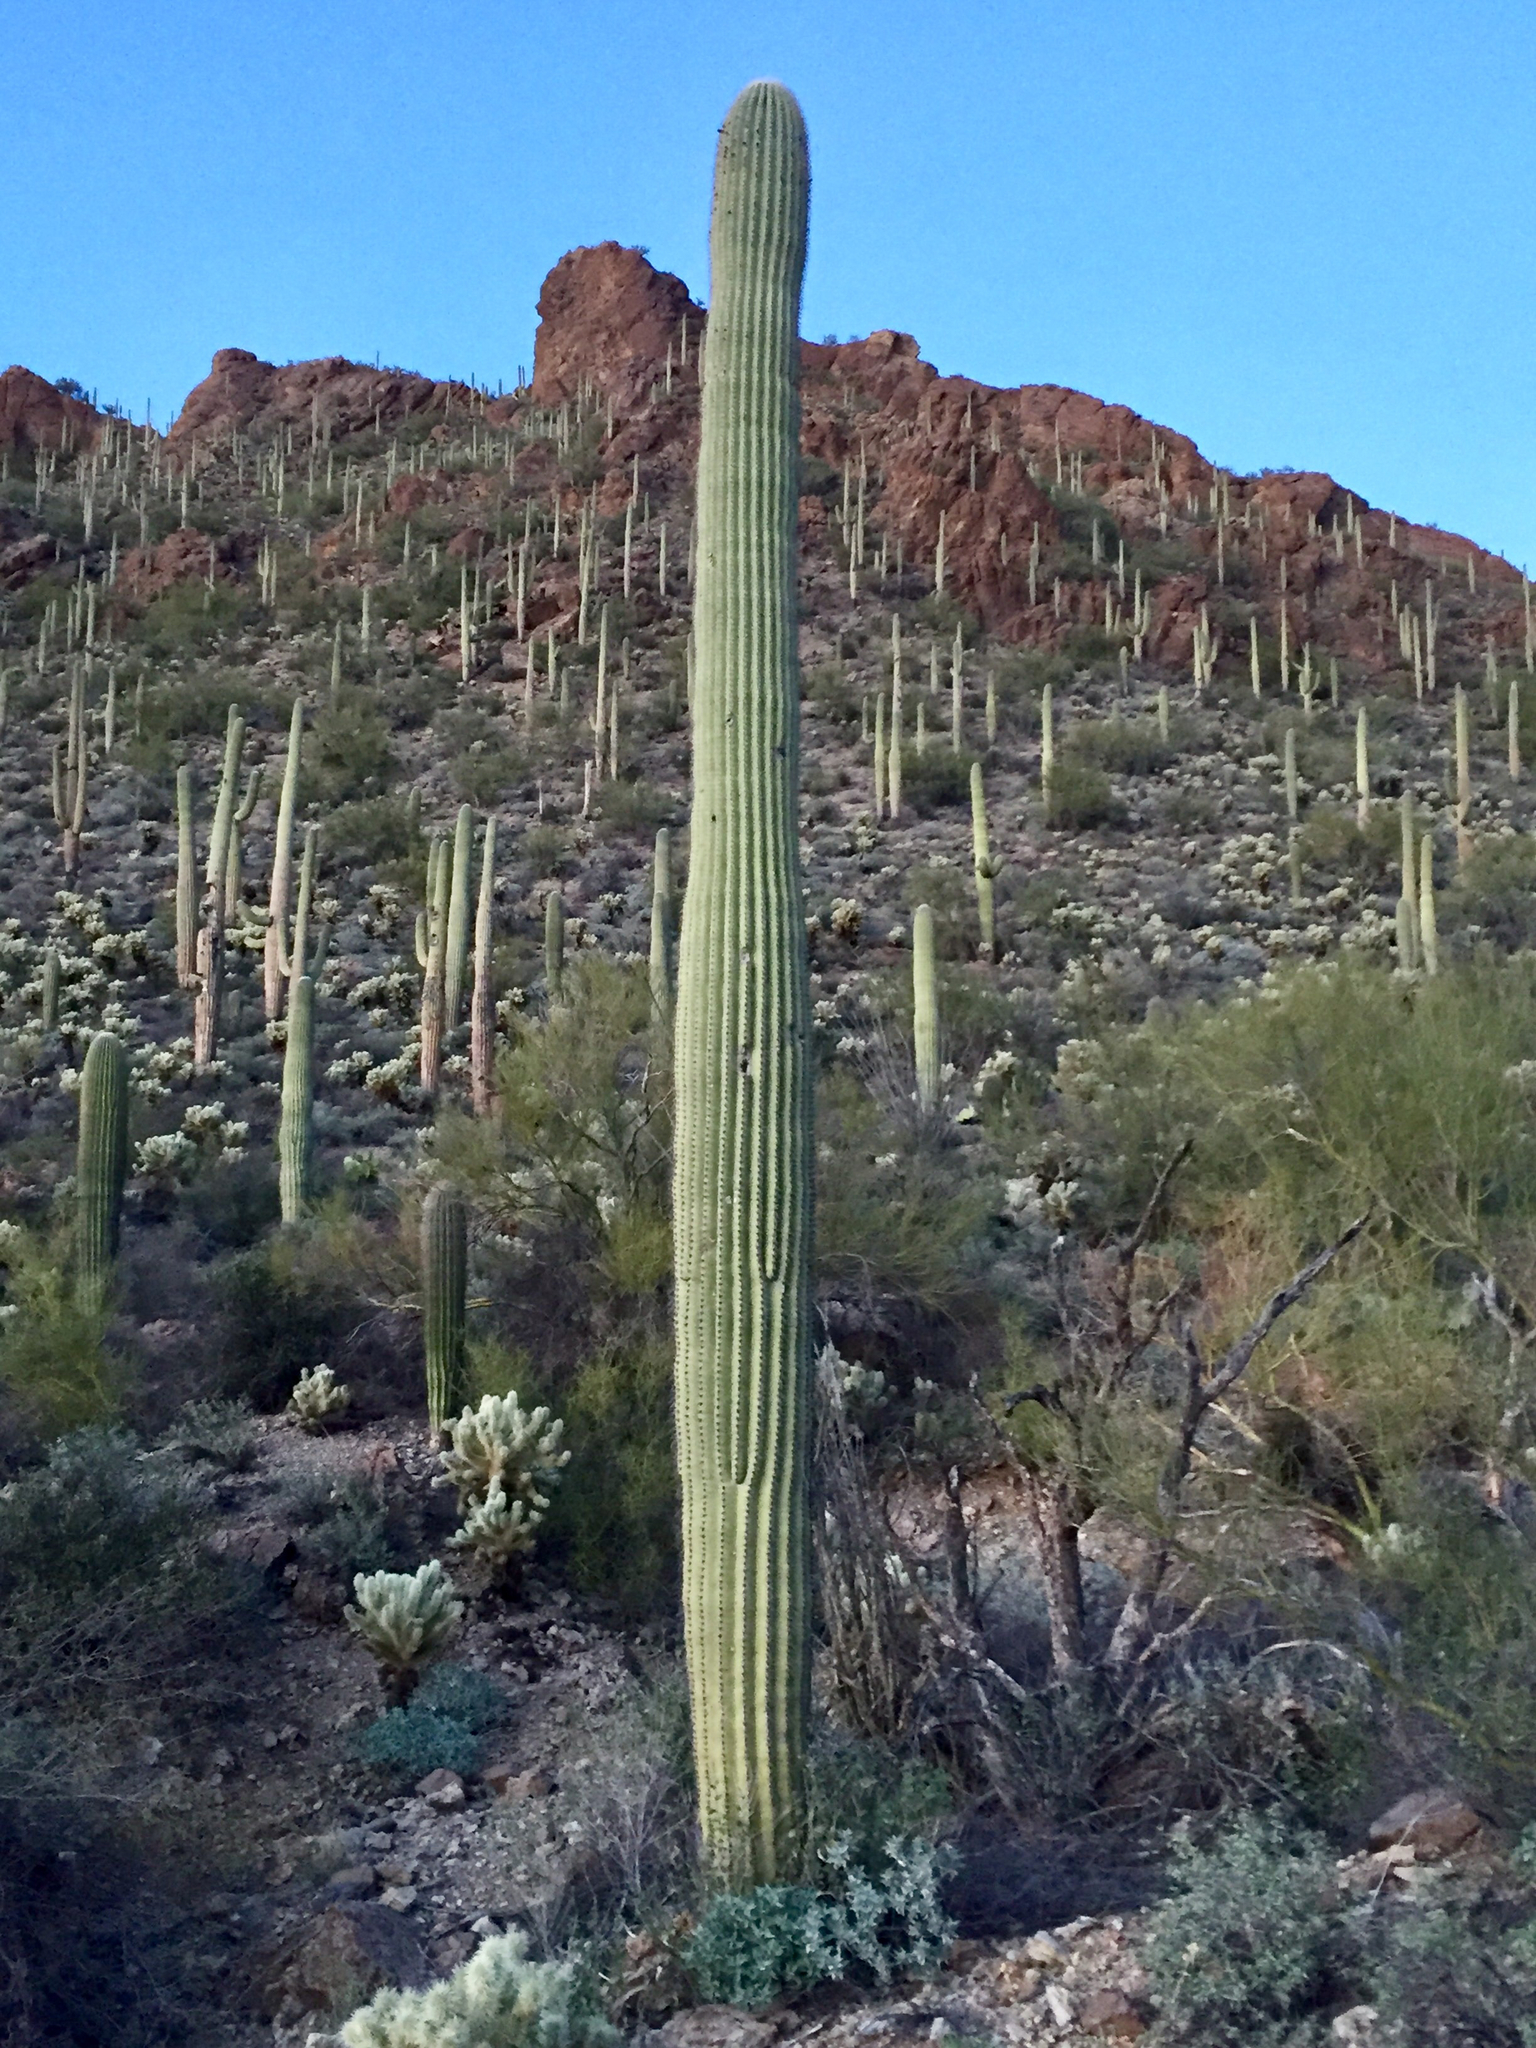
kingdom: Plantae
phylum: Tracheophyta
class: Magnoliopsida
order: Caryophyllales
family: Cactaceae
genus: Carnegiea
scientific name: Carnegiea gigantea
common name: Saguaro
